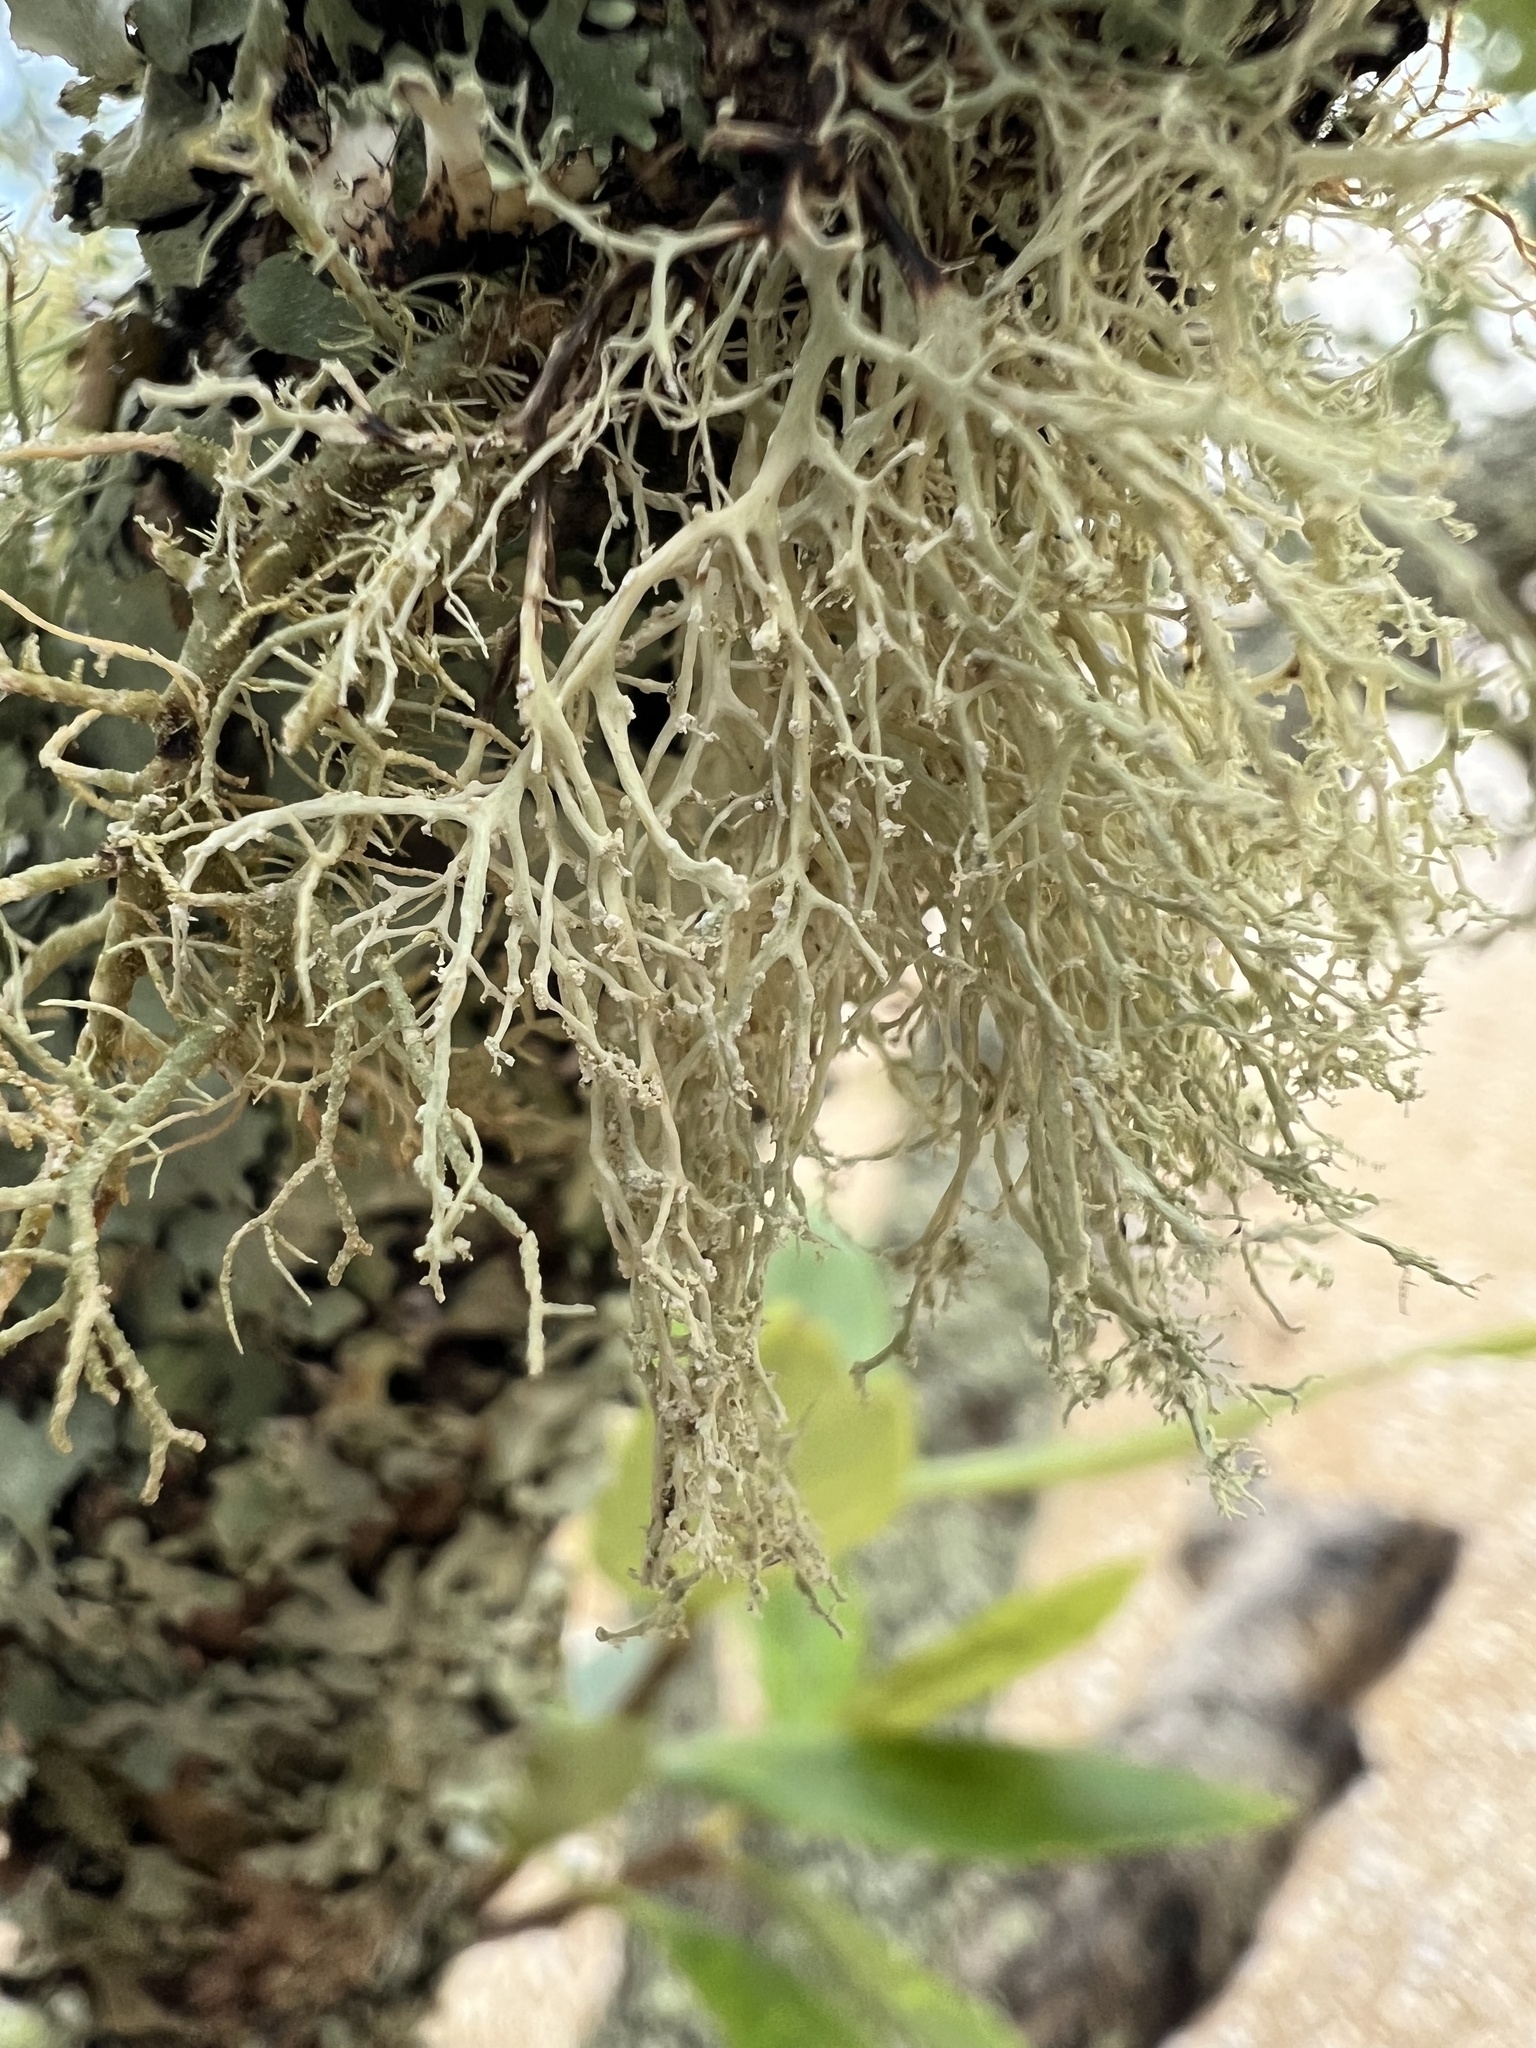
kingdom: Fungi
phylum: Ascomycota
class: Lecanoromycetes
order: Lecanorales
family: Ramalinaceae
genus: Ramalina
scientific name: Ramalina peruviana
